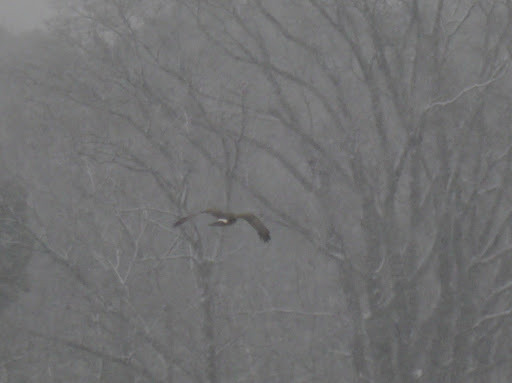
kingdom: Animalia
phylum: Chordata
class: Aves
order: Accipitriformes
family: Accipitridae
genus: Circus
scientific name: Circus cyaneus
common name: Hen harrier
